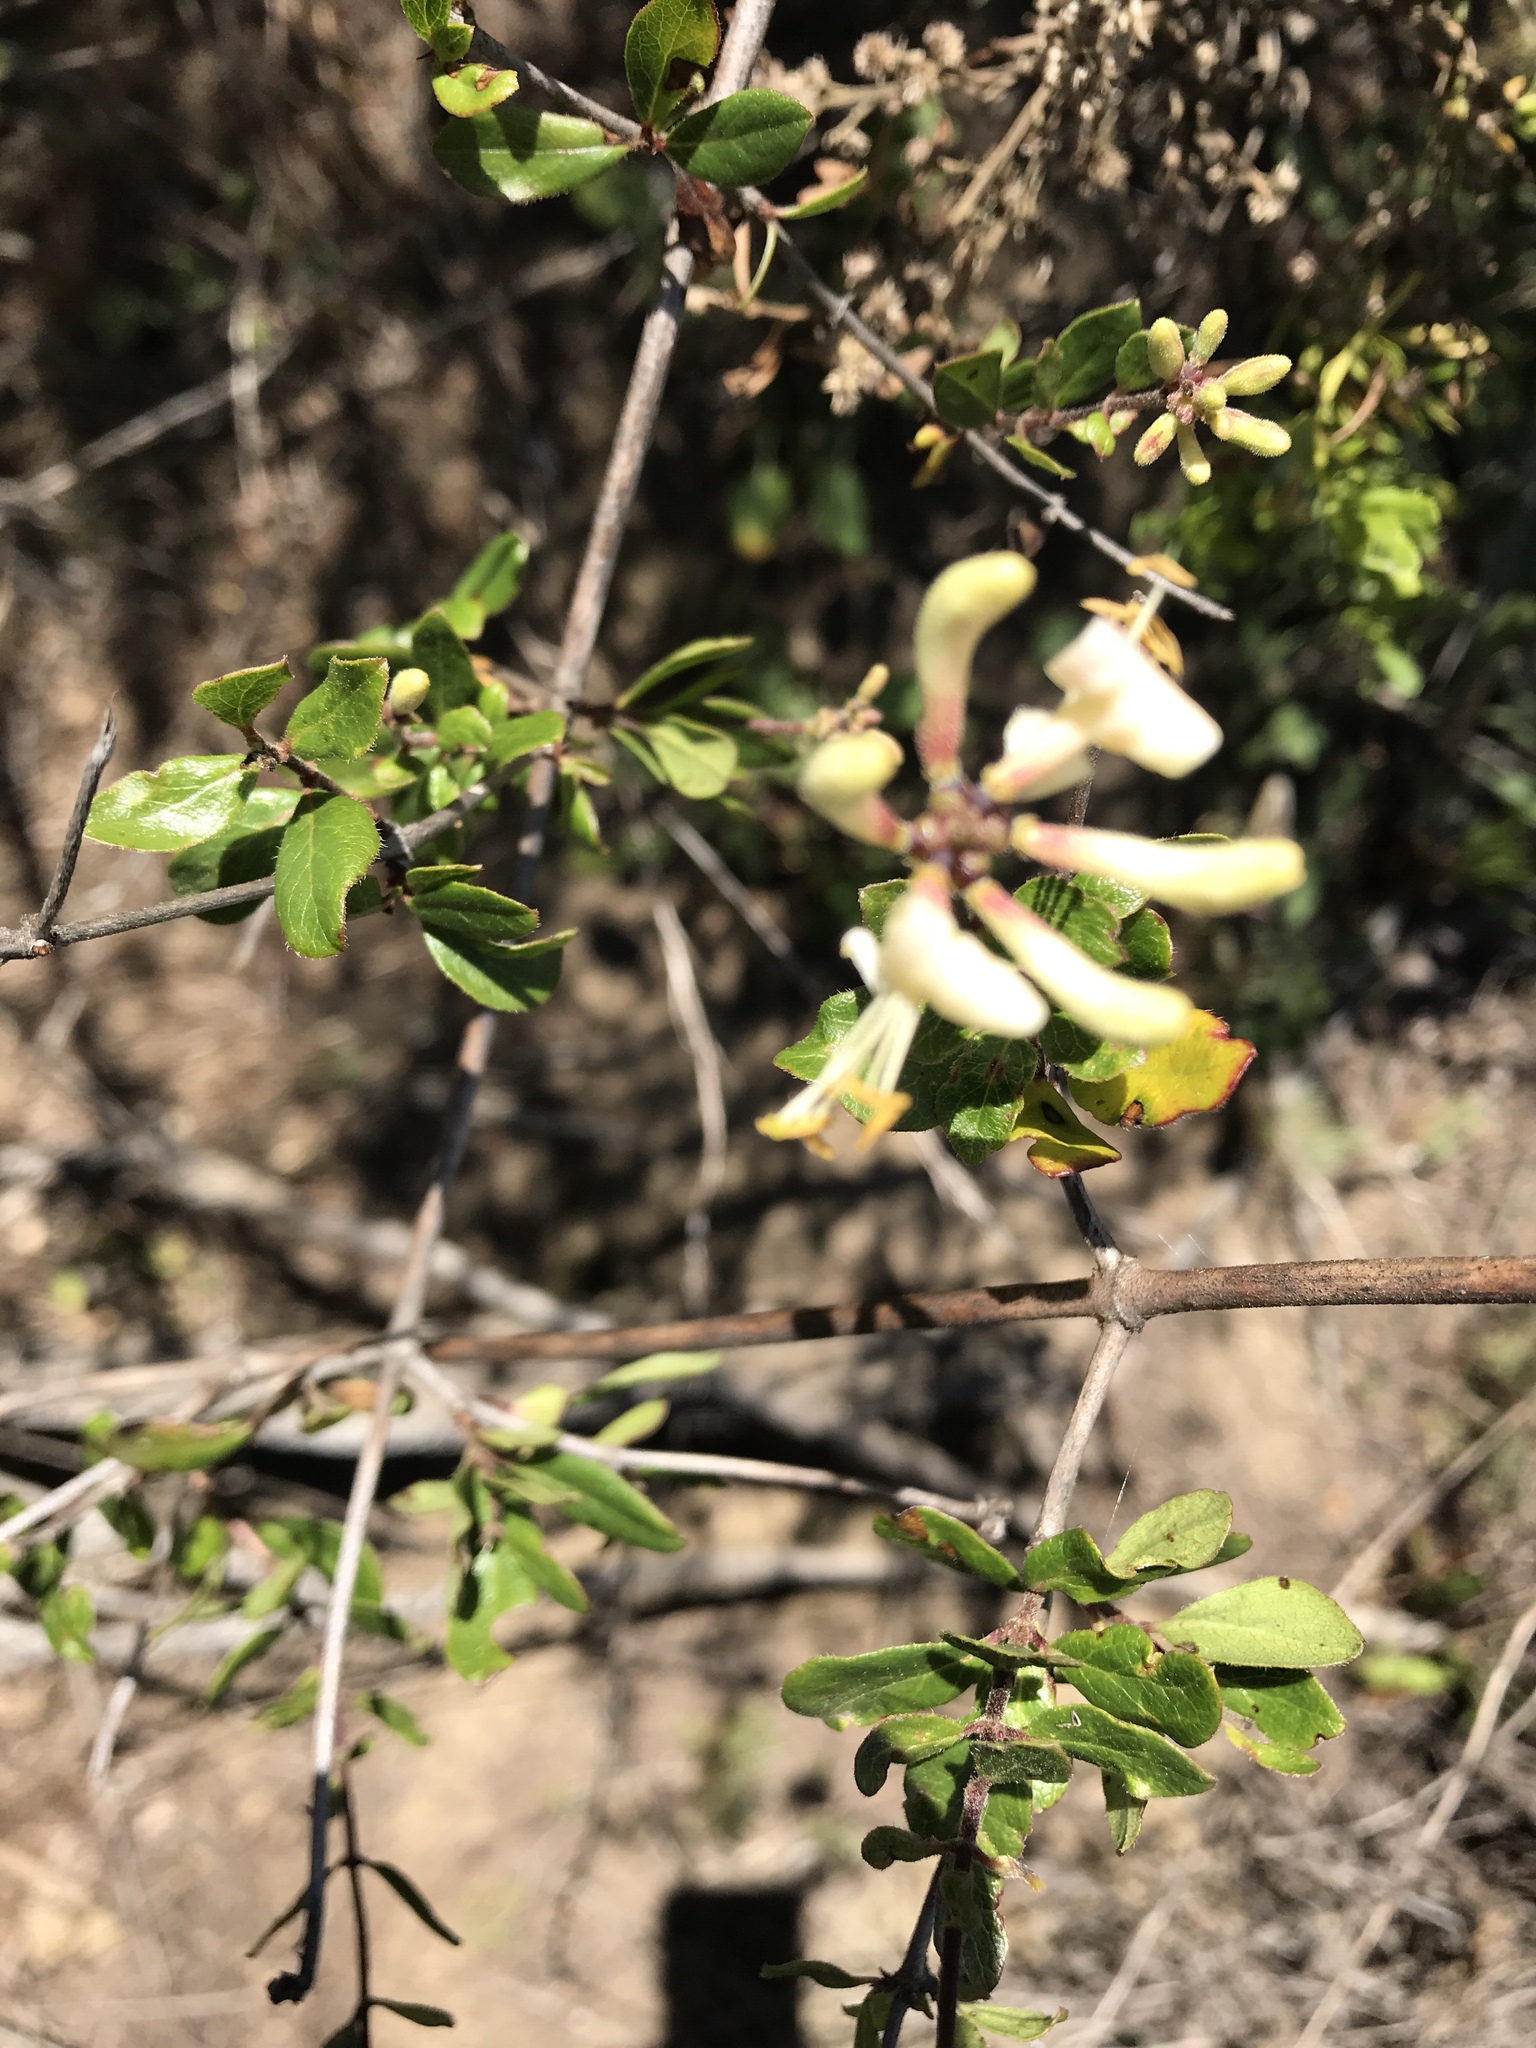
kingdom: Plantae
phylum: Tracheophyta
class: Magnoliopsida
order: Dipsacales
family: Caprifoliaceae
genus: Lonicera
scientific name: Lonicera subspicata
